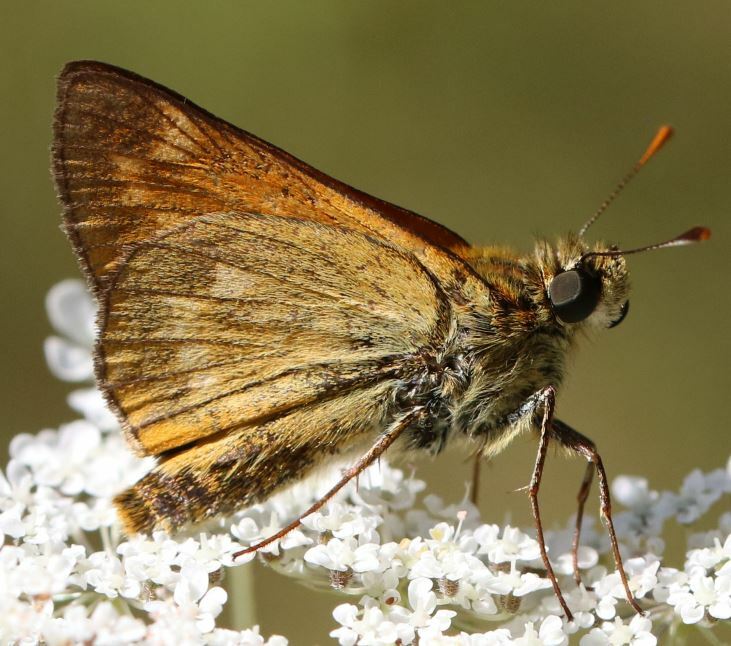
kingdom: Animalia
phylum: Arthropoda
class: Insecta
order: Lepidoptera
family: Hesperiidae
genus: Ochlodes
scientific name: Ochlodes venata
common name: Large skipper
